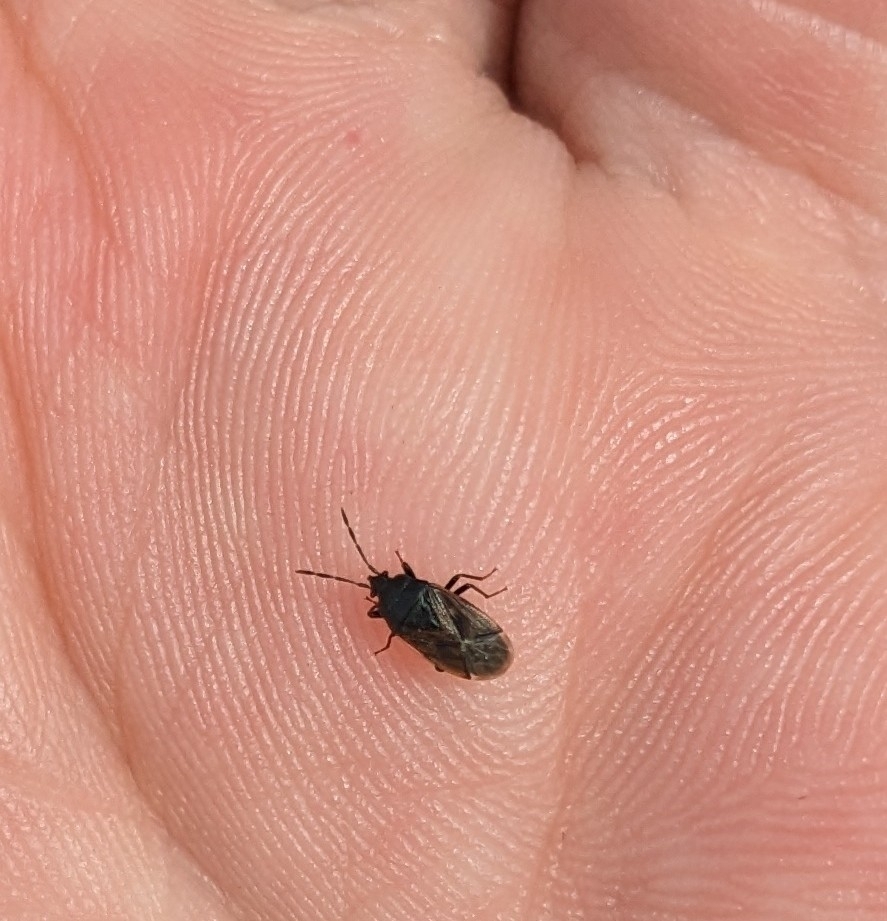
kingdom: Animalia
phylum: Arthropoda
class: Insecta
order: Hemiptera
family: Rhyparochromidae
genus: Drymus
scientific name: Drymus sylvaticus
